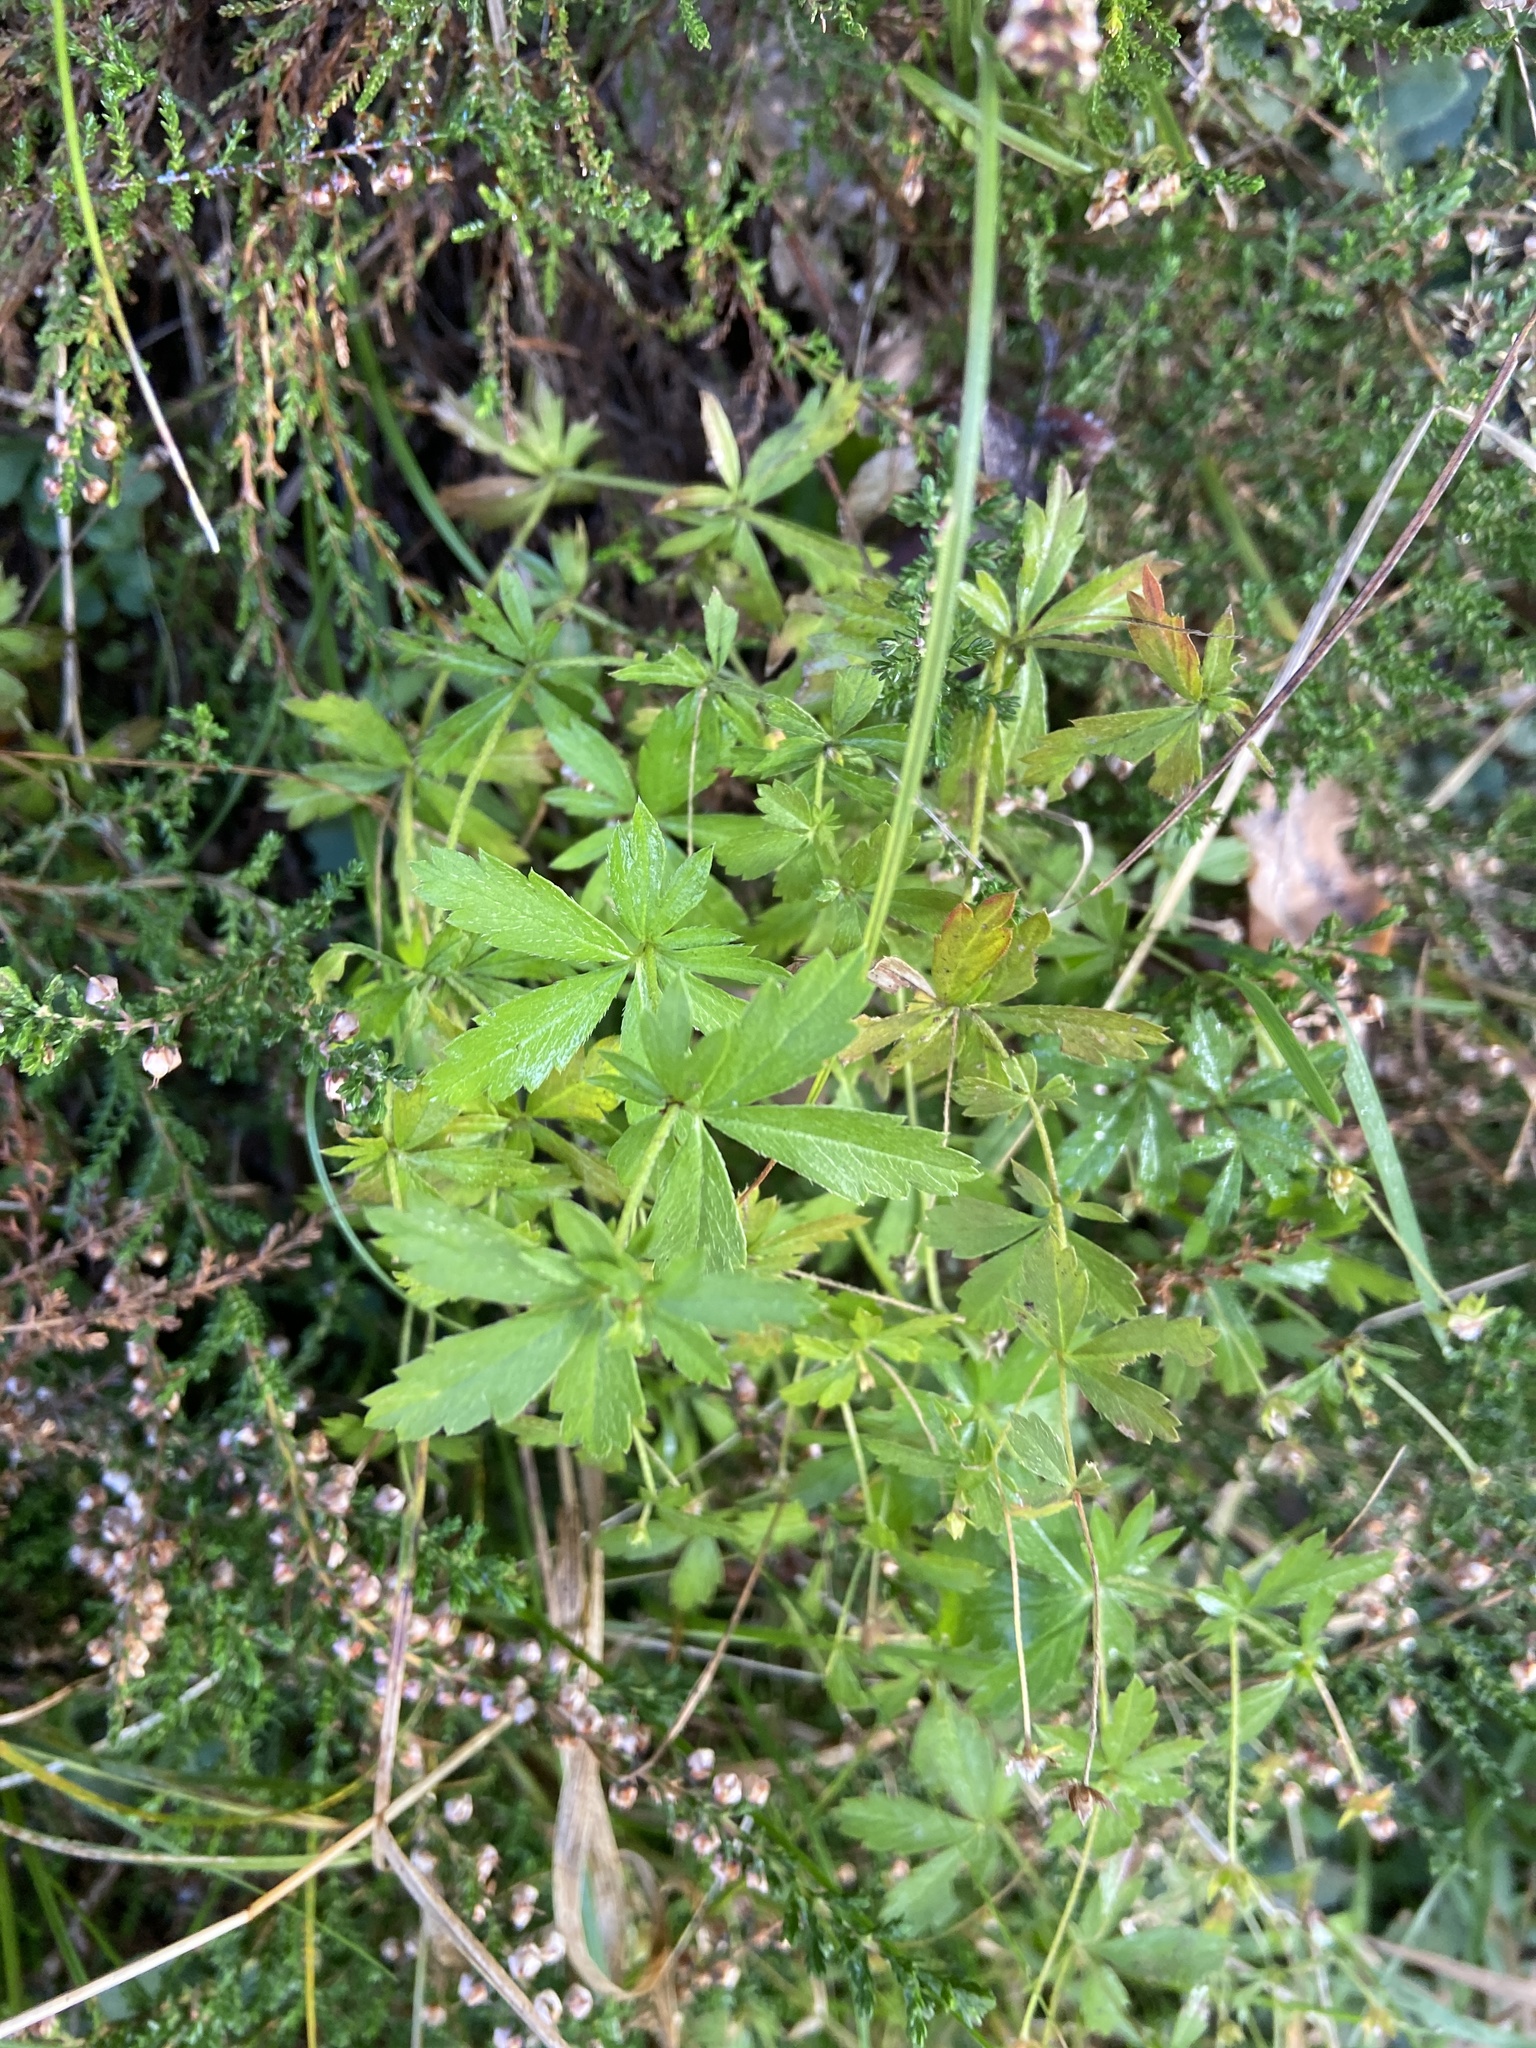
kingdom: Plantae
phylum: Tracheophyta
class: Magnoliopsida
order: Rosales
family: Rosaceae
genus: Potentilla
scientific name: Potentilla erecta
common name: Tormentil
